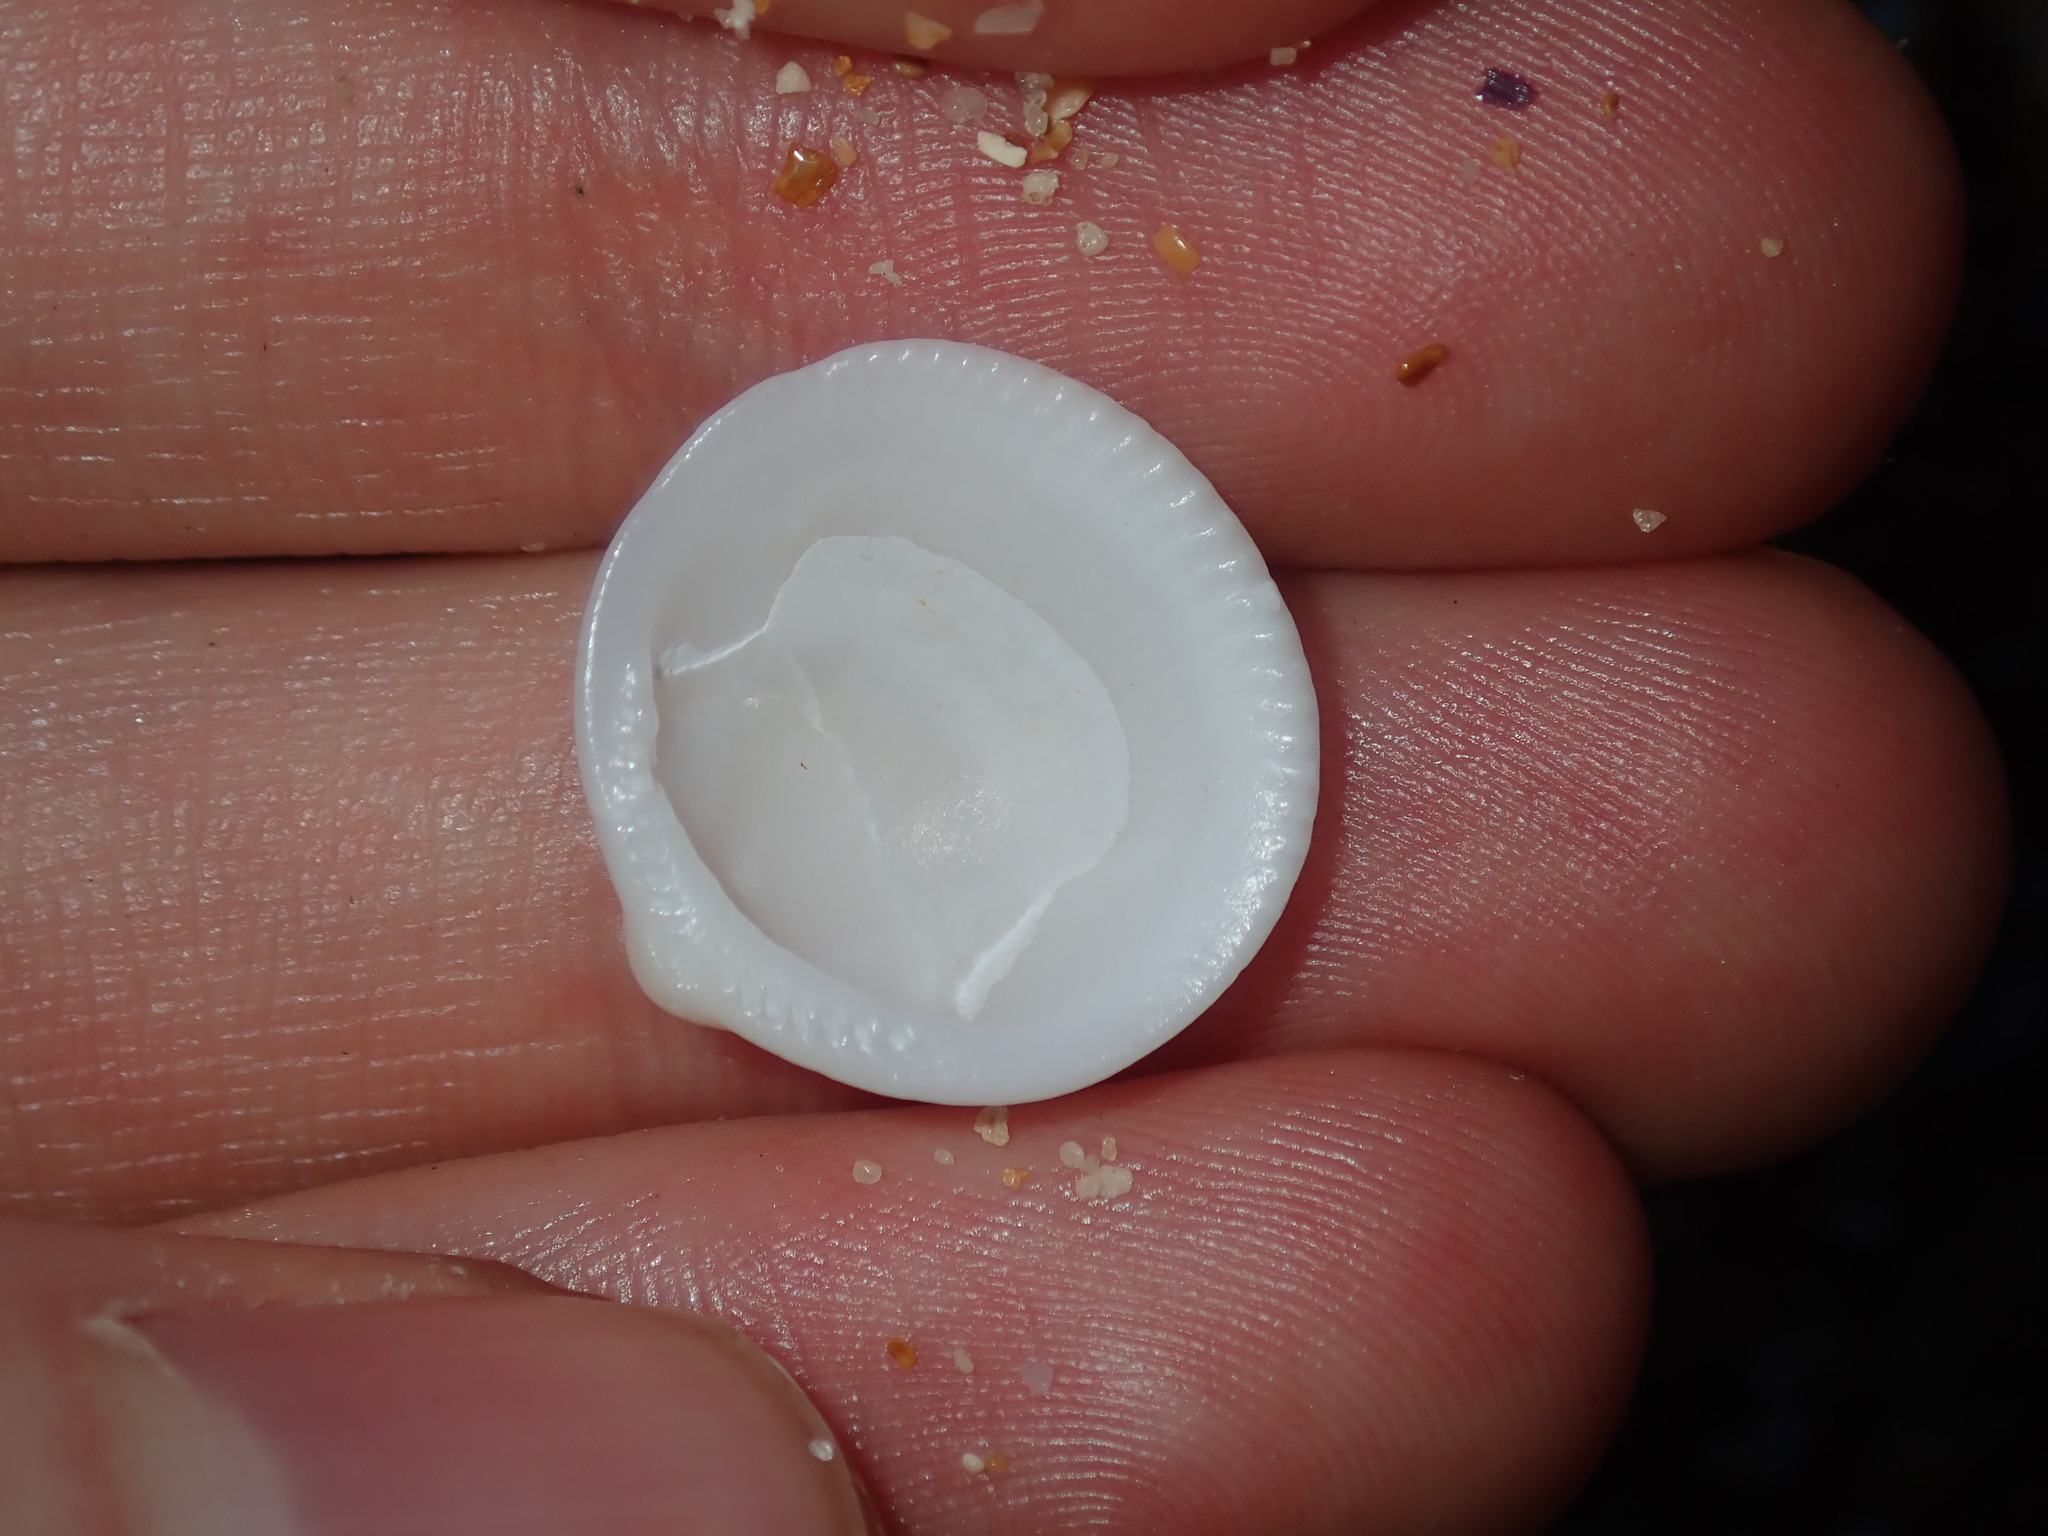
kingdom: Animalia
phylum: Mollusca
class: Bivalvia
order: Arcida
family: Glycymerididae
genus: Glycymeris
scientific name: Glycymeris holoserica
